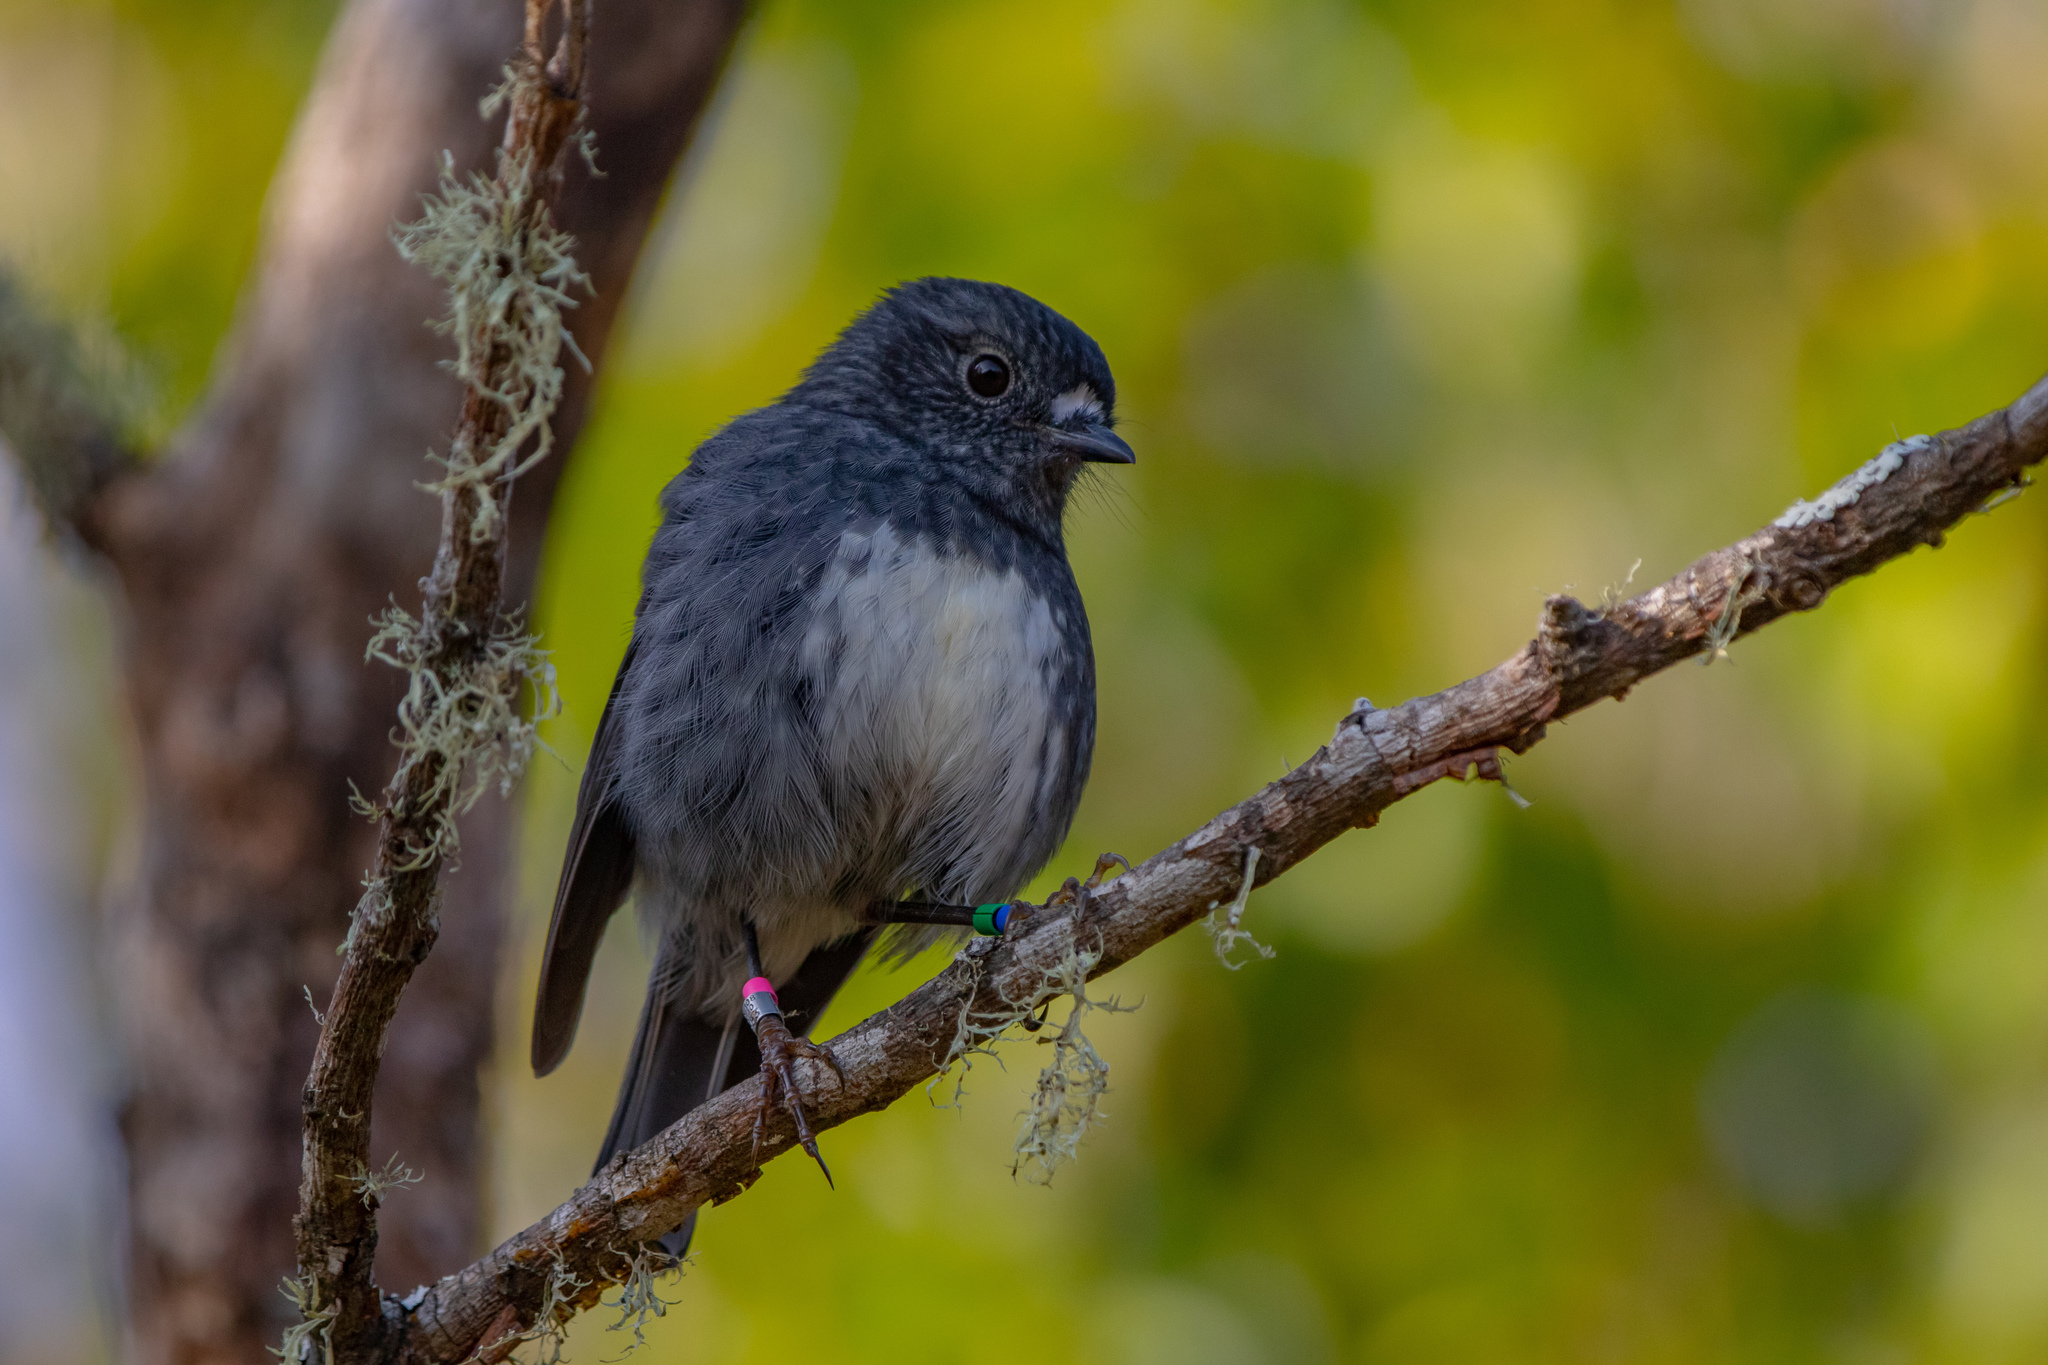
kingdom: Animalia
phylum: Chordata
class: Aves
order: Passeriformes
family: Petroicidae
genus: Petroica
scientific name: Petroica australis
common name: New zealand robin
